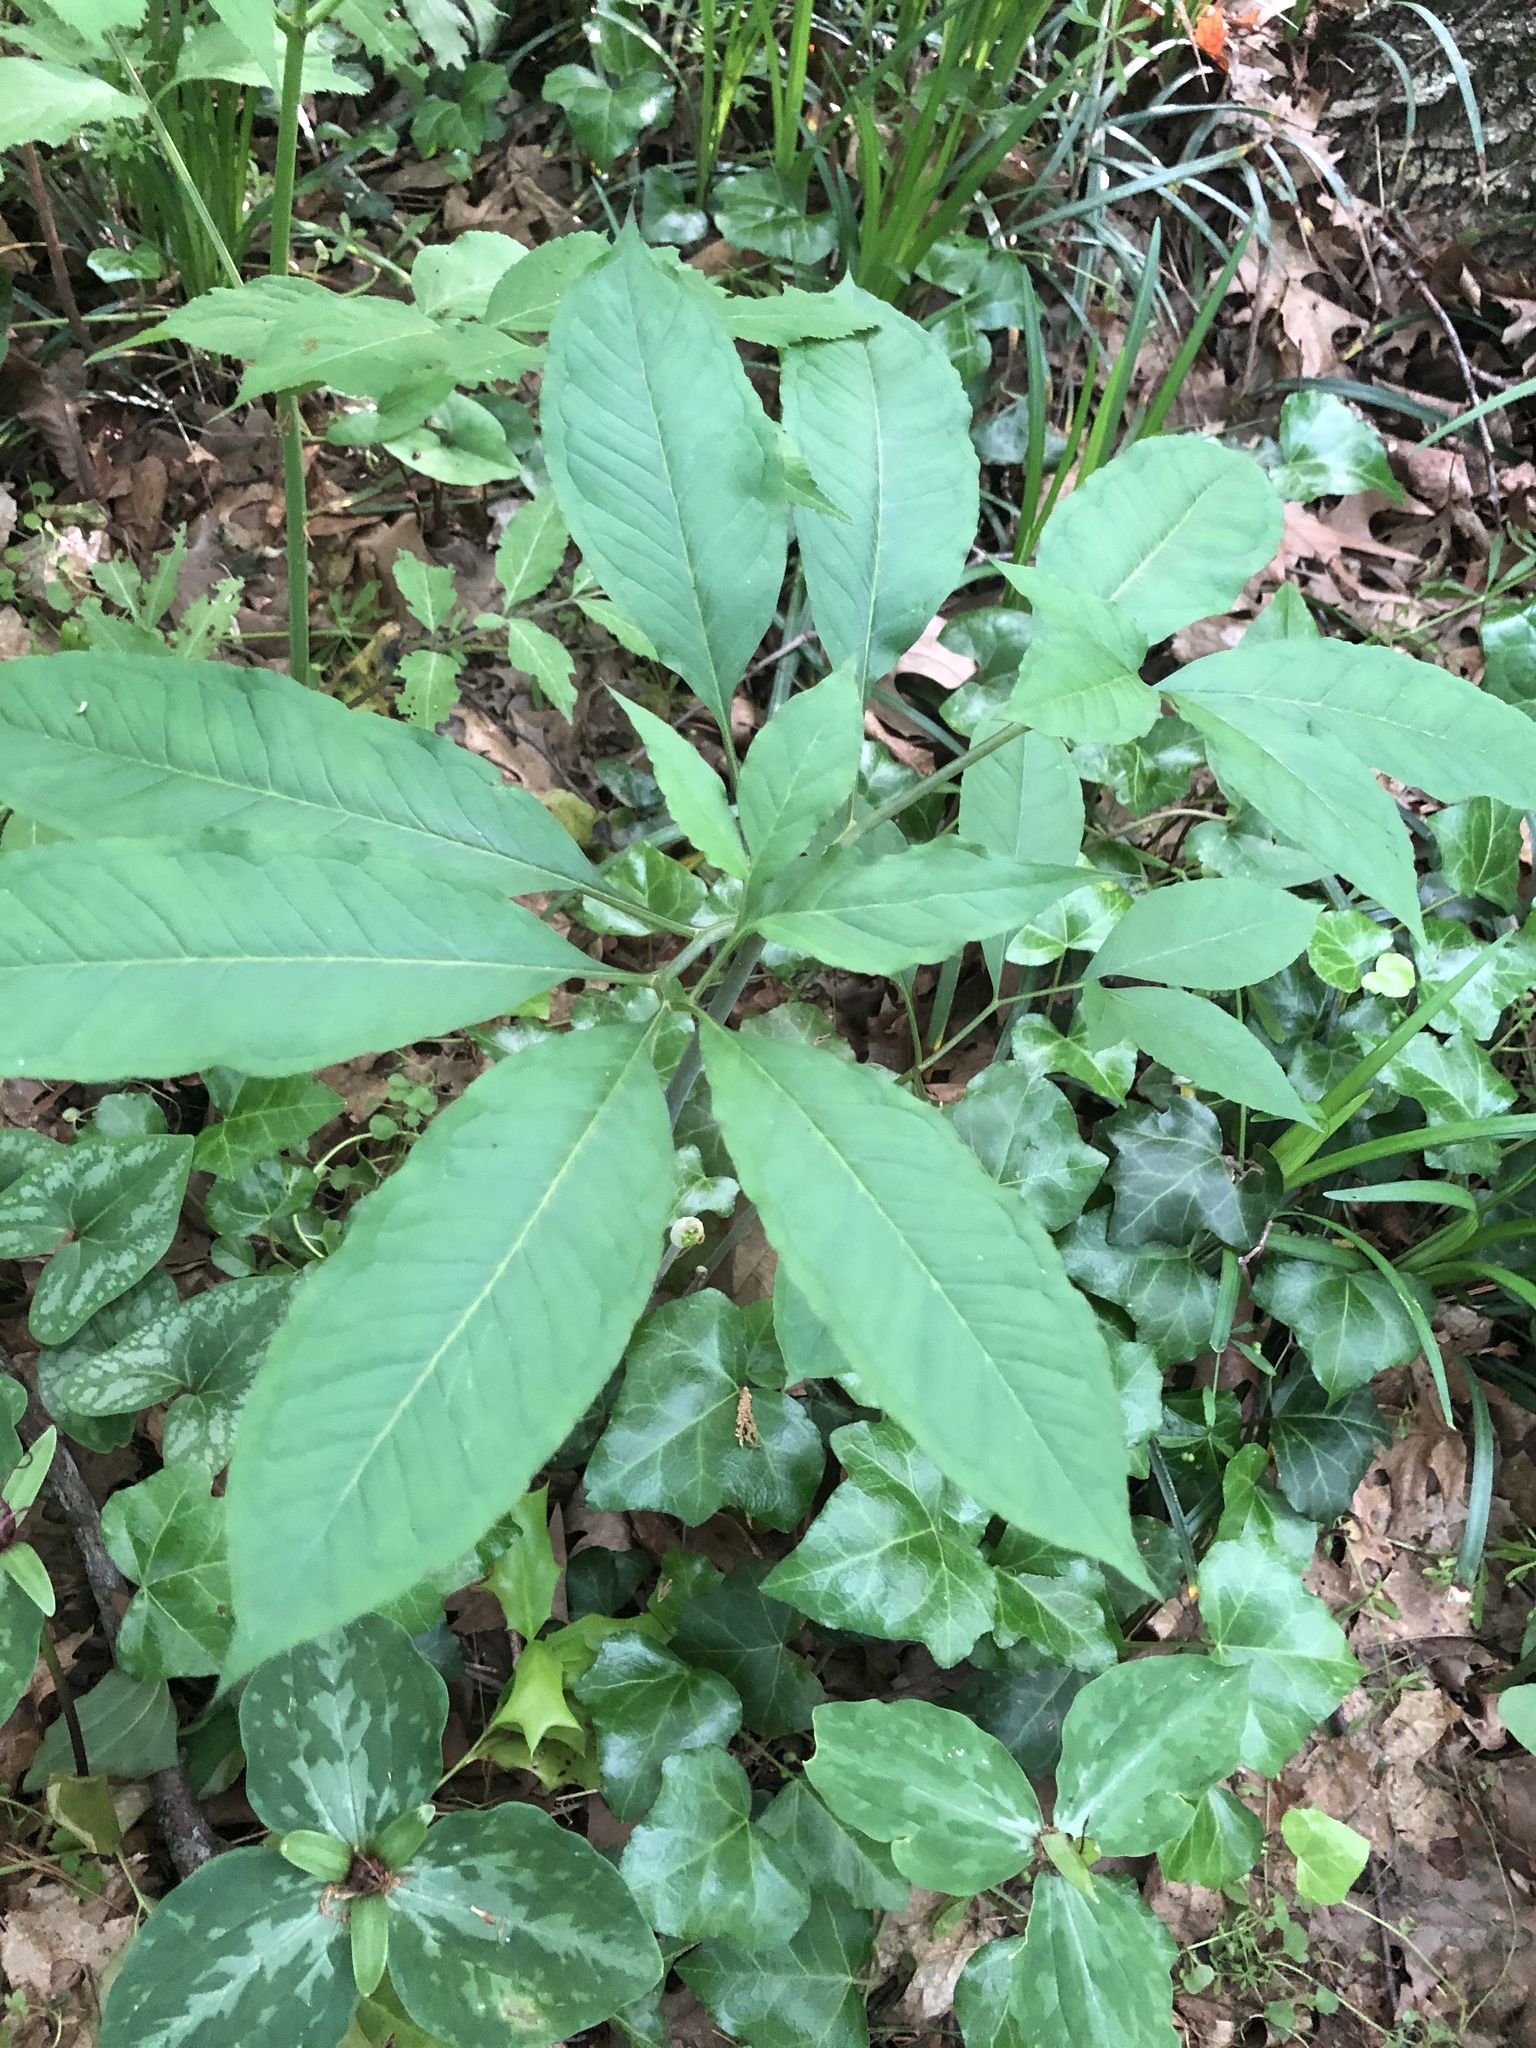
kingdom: Plantae
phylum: Tracheophyta
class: Liliopsida
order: Alismatales
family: Araceae
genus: Arisaema
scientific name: Arisaema dracontium
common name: Dragon-arum
